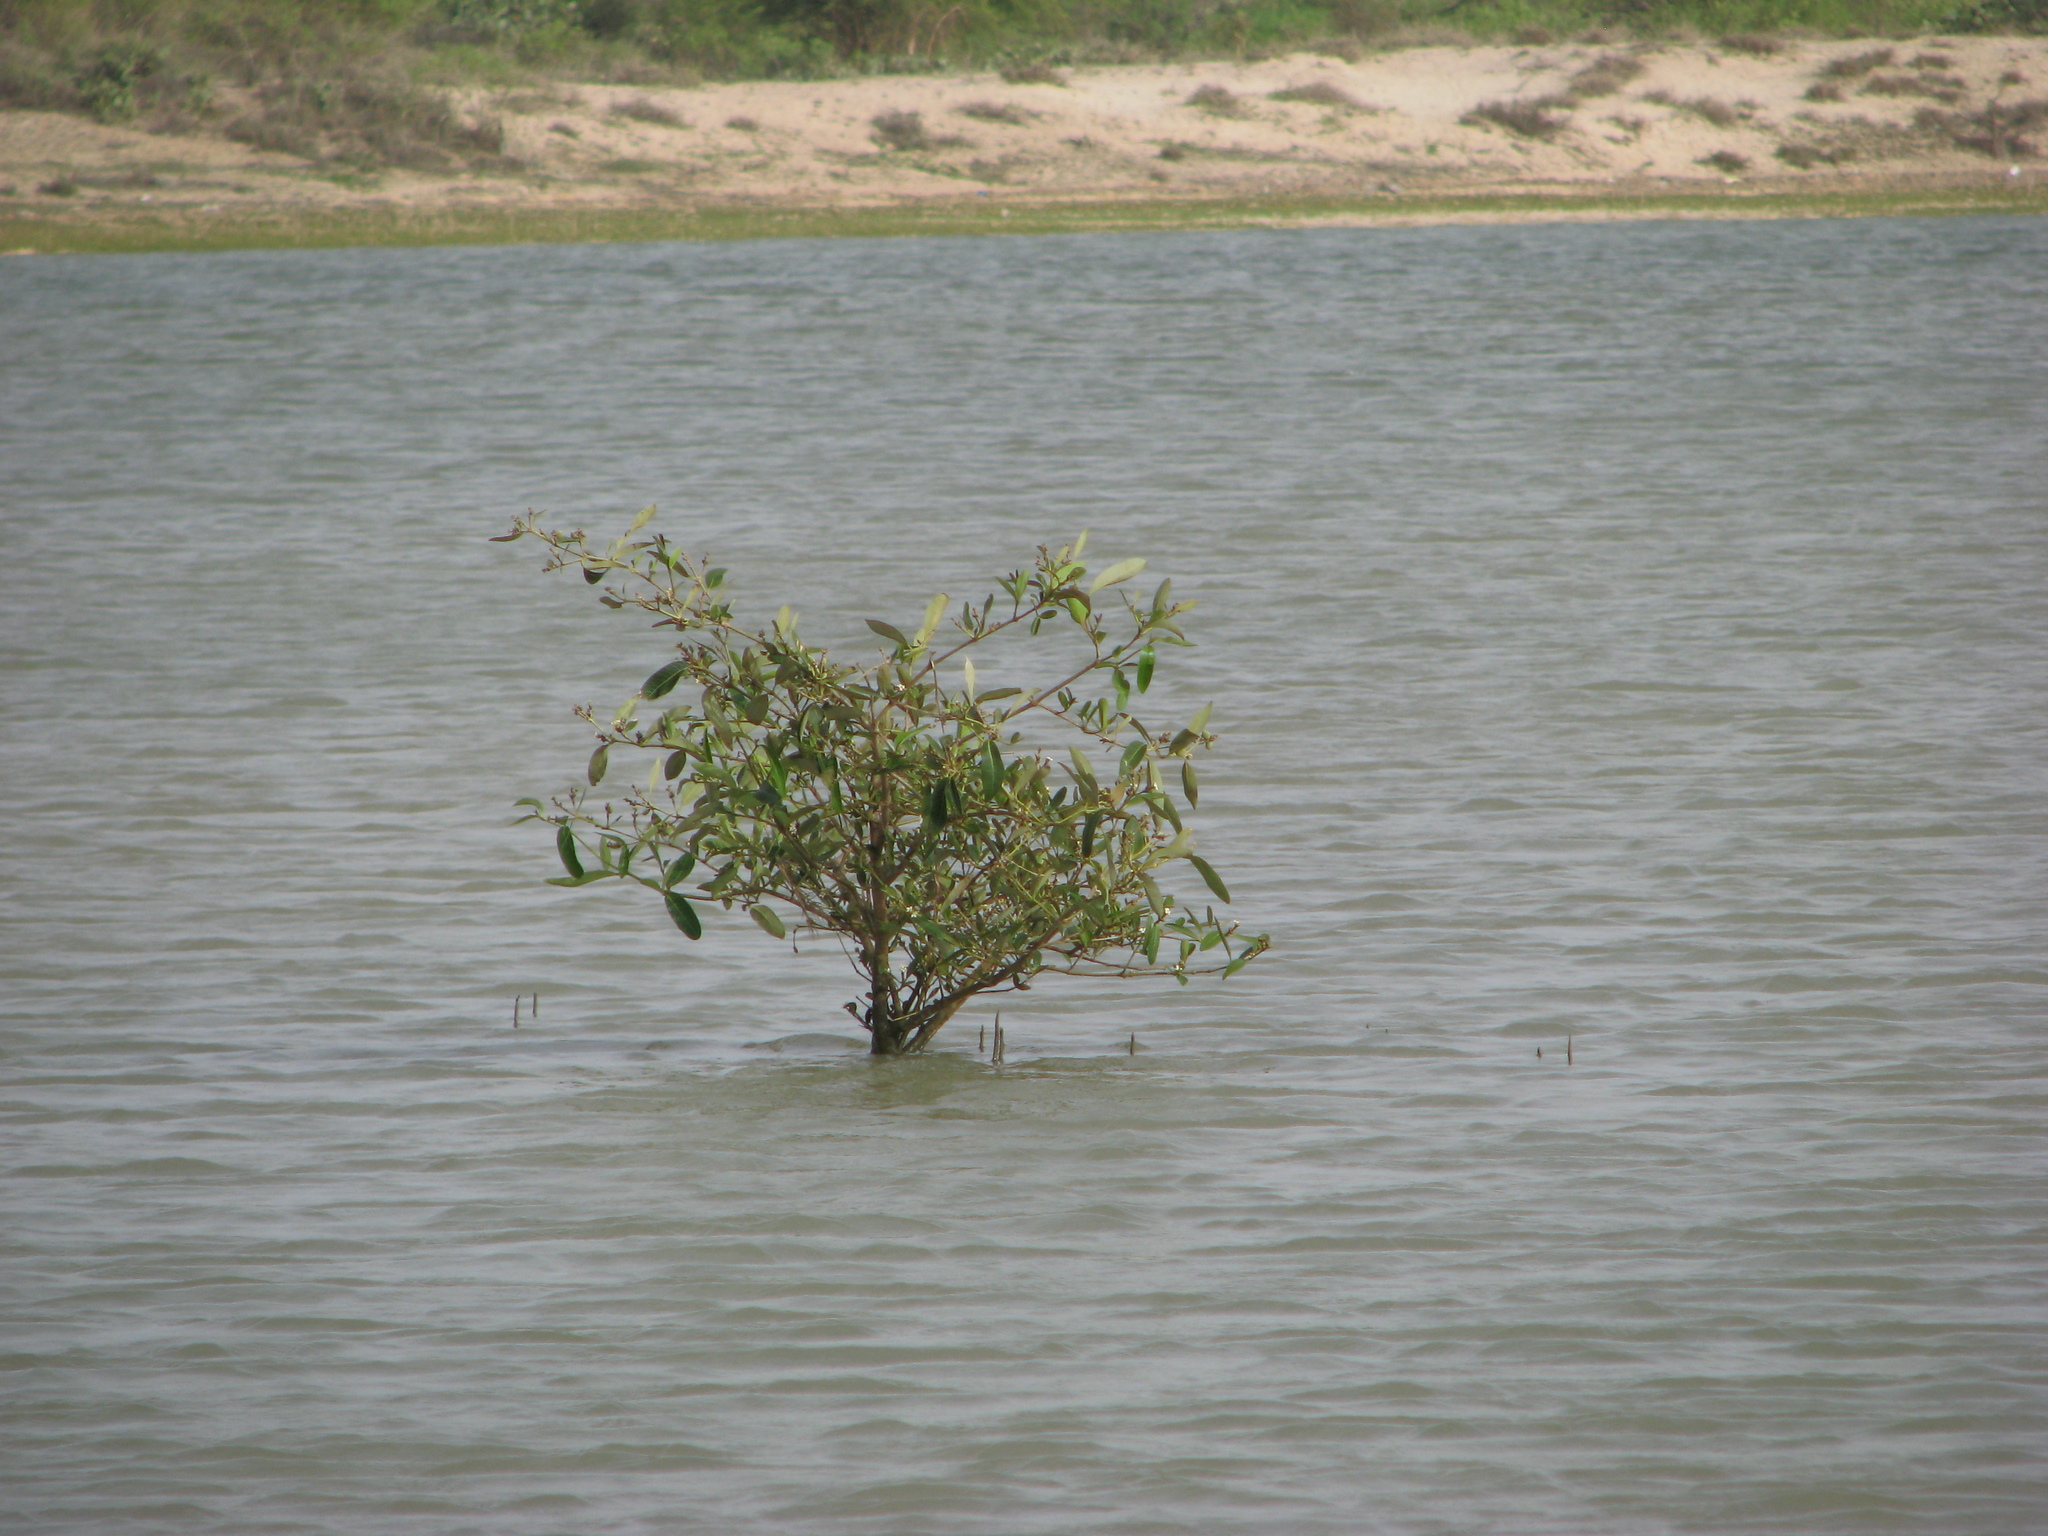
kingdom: Plantae
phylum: Tracheophyta
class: Magnoliopsida
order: Lamiales
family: Acanthaceae
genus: Avicennia
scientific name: Avicennia germinans
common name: Black mangrove
